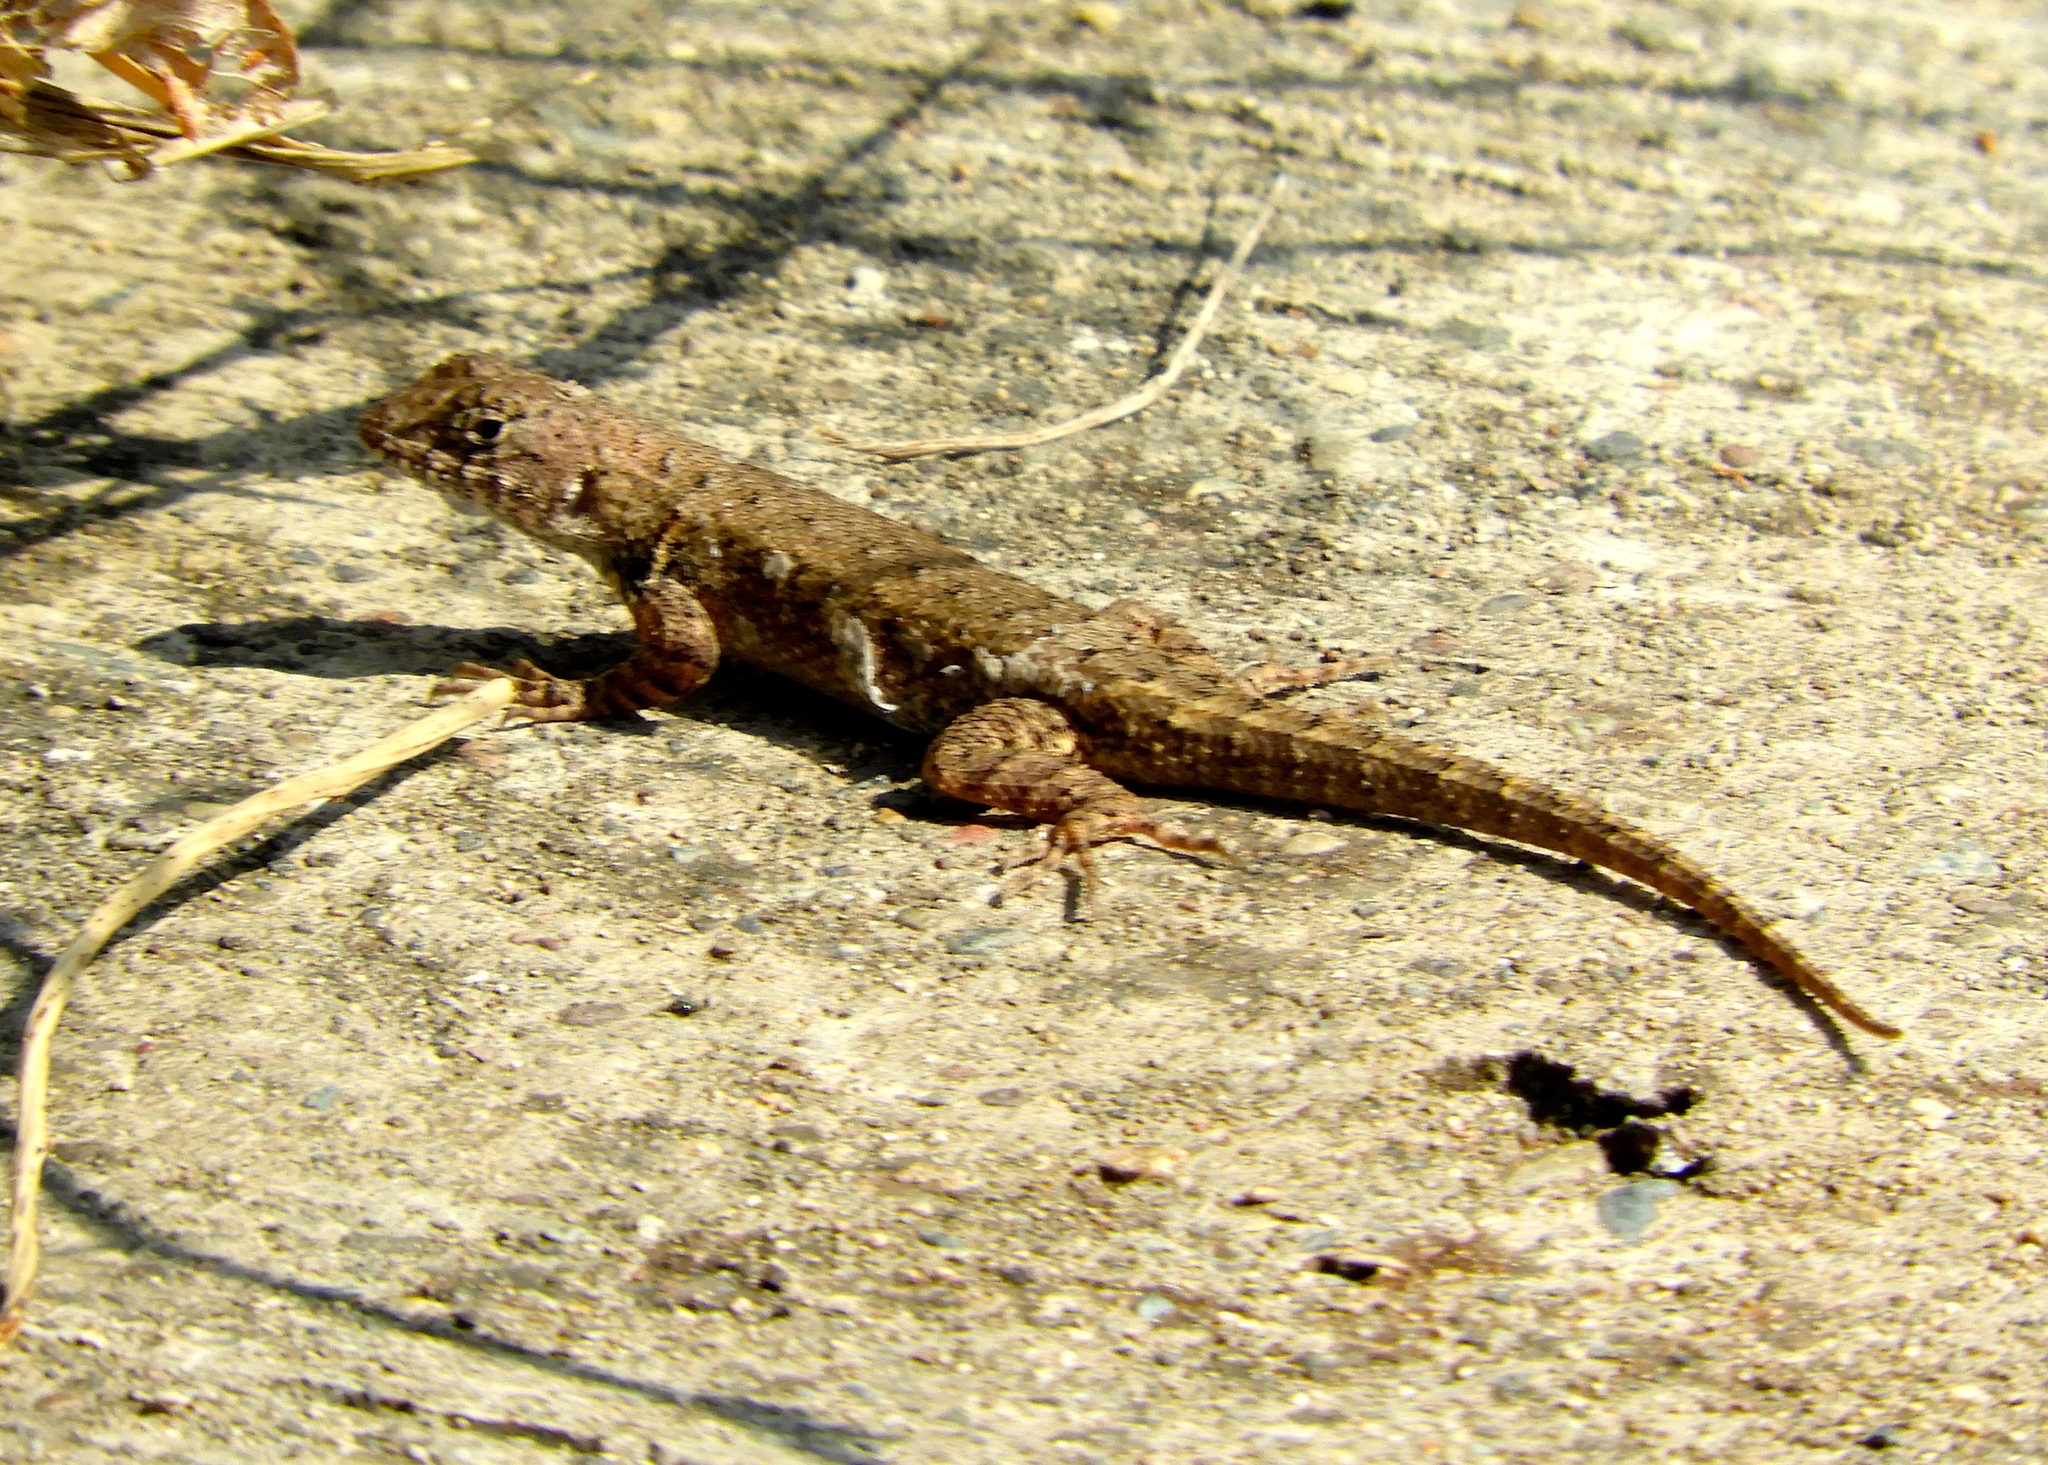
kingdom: Animalia
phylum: Chordata
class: Squamata
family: Phrynosomatidae
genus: Sceloporus
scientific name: Sceloporus nelsoni
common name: Nelson's spiny lizard
